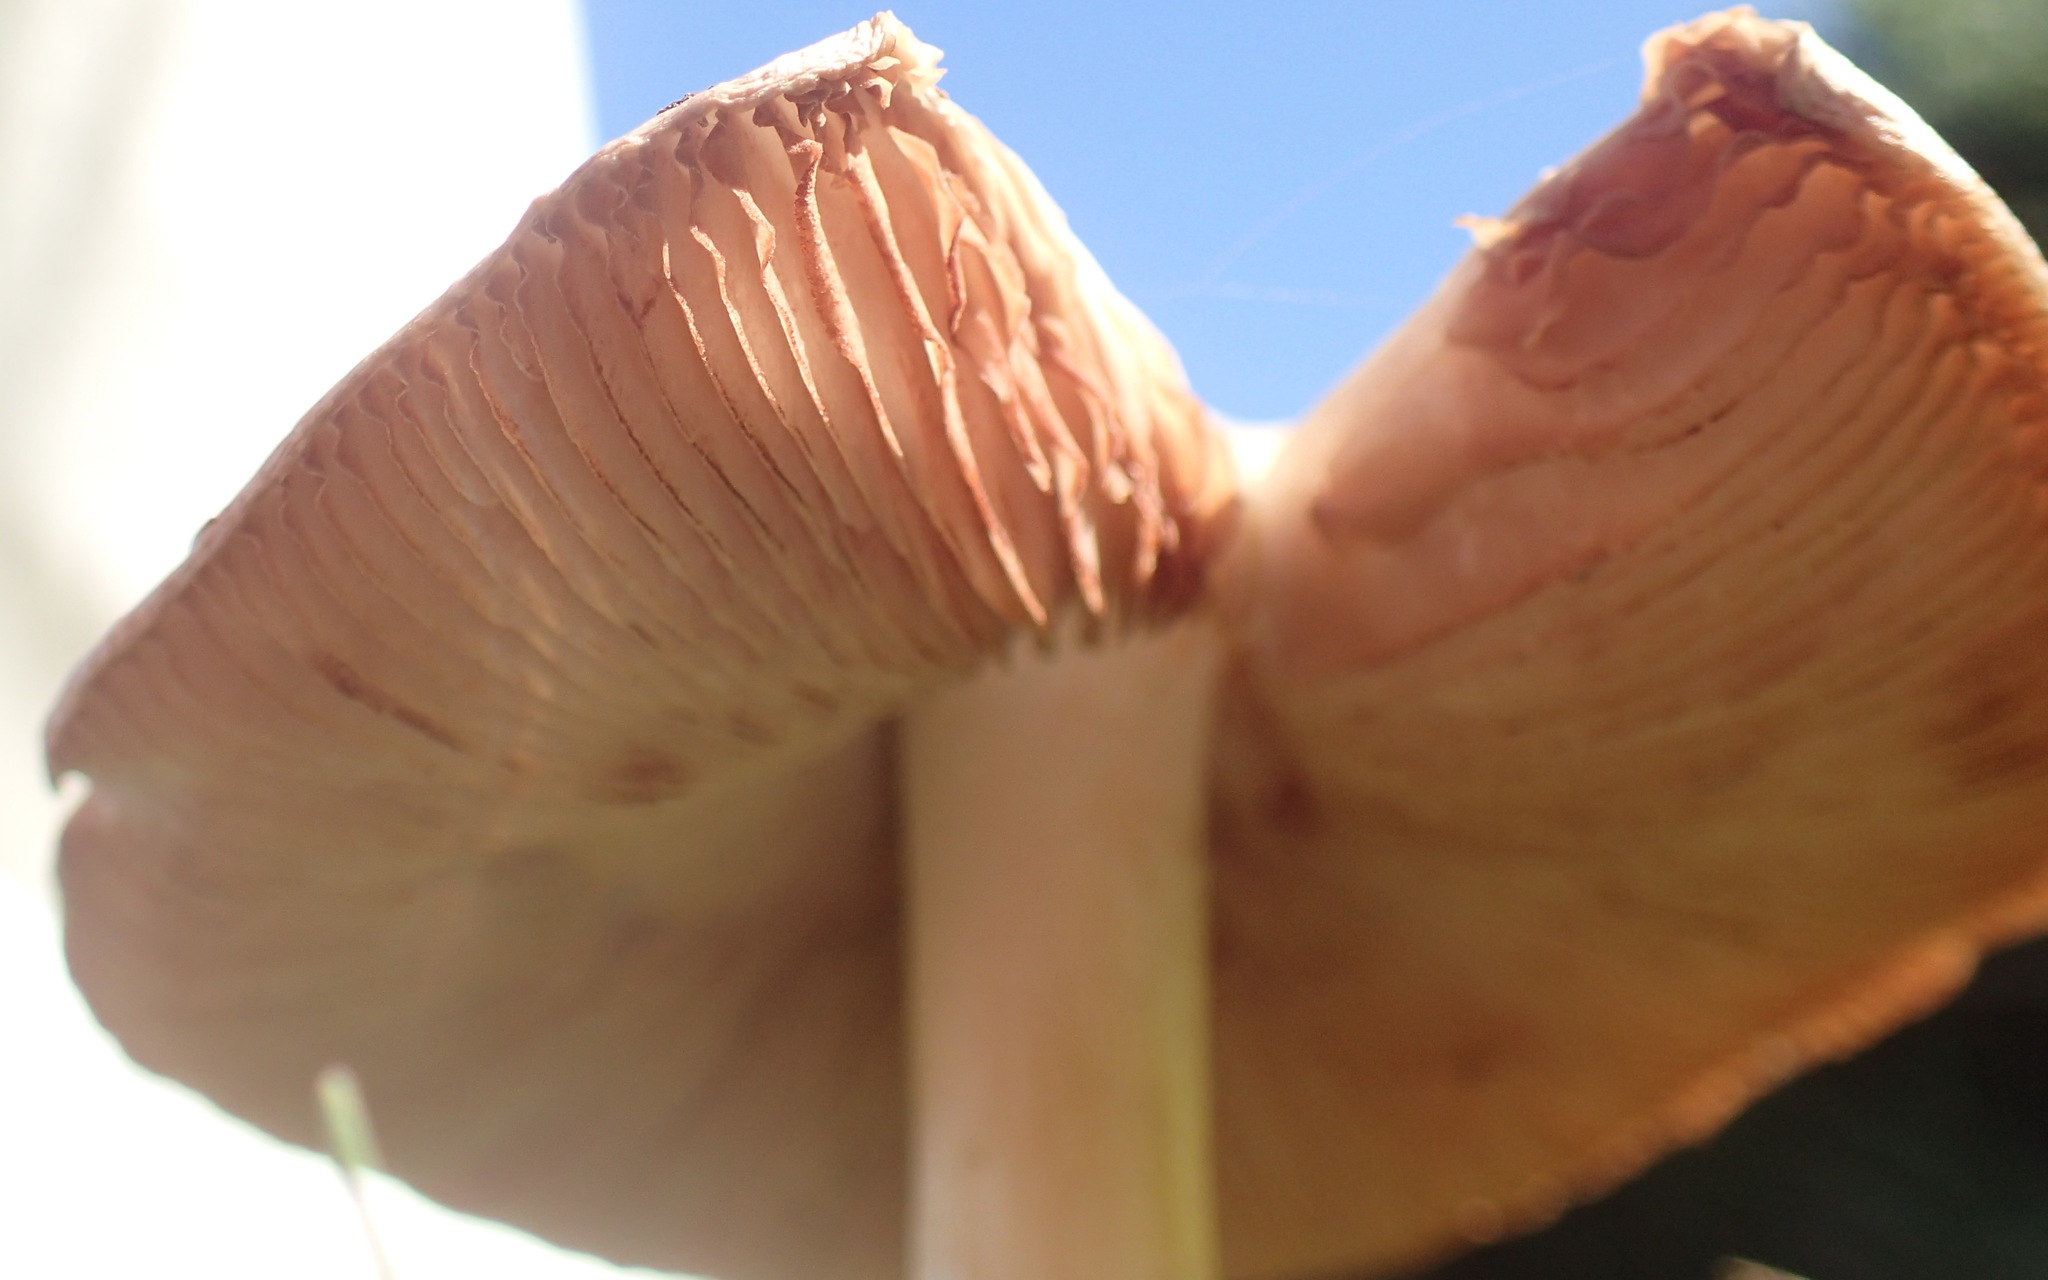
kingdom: Fungi
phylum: Basidiomycota
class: Agaricomycetes
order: Agaricales
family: Pluteaceae
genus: Volvopluteus
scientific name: Volvopluteus gloiocephalus
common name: Stubble rosegill
